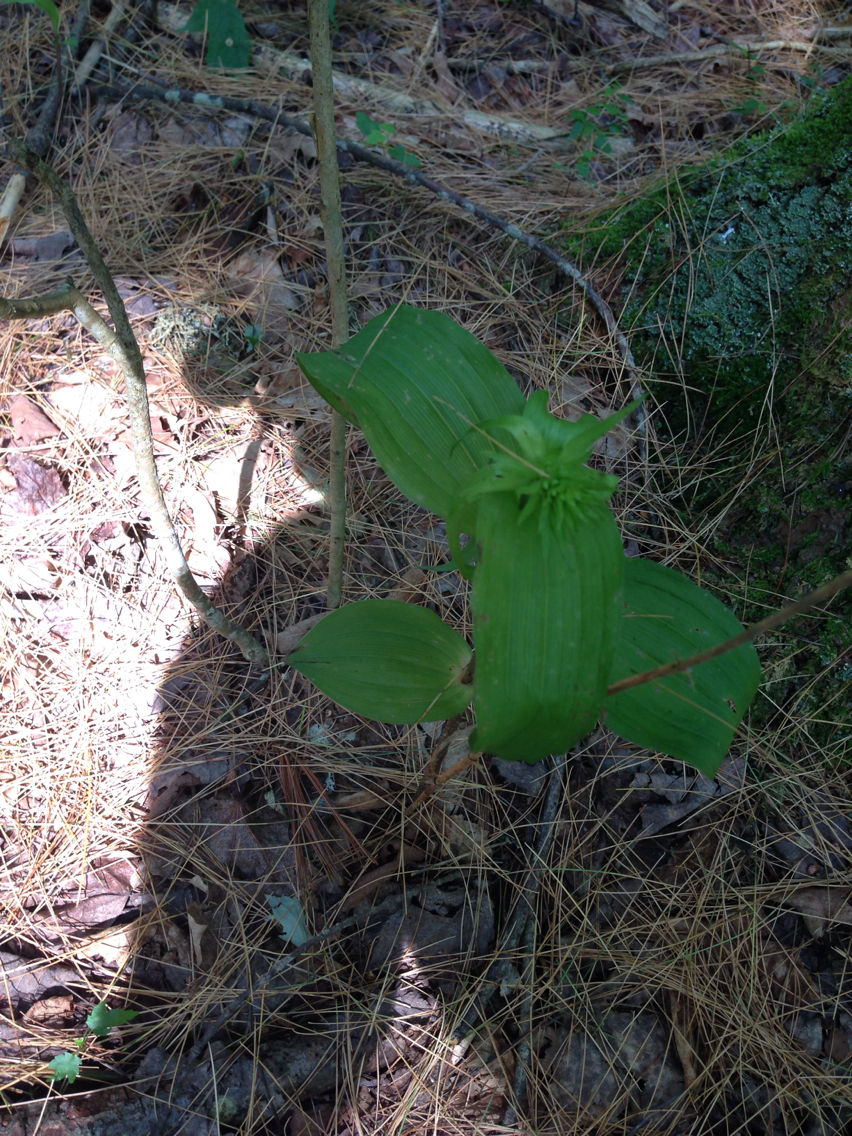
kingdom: Plantae
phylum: Tracheophyta
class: Liliopsida
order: Asparagales
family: Orchidaceae
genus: Epipactis
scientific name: Epipactis helleborine
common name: Broad-leaved helleborine
